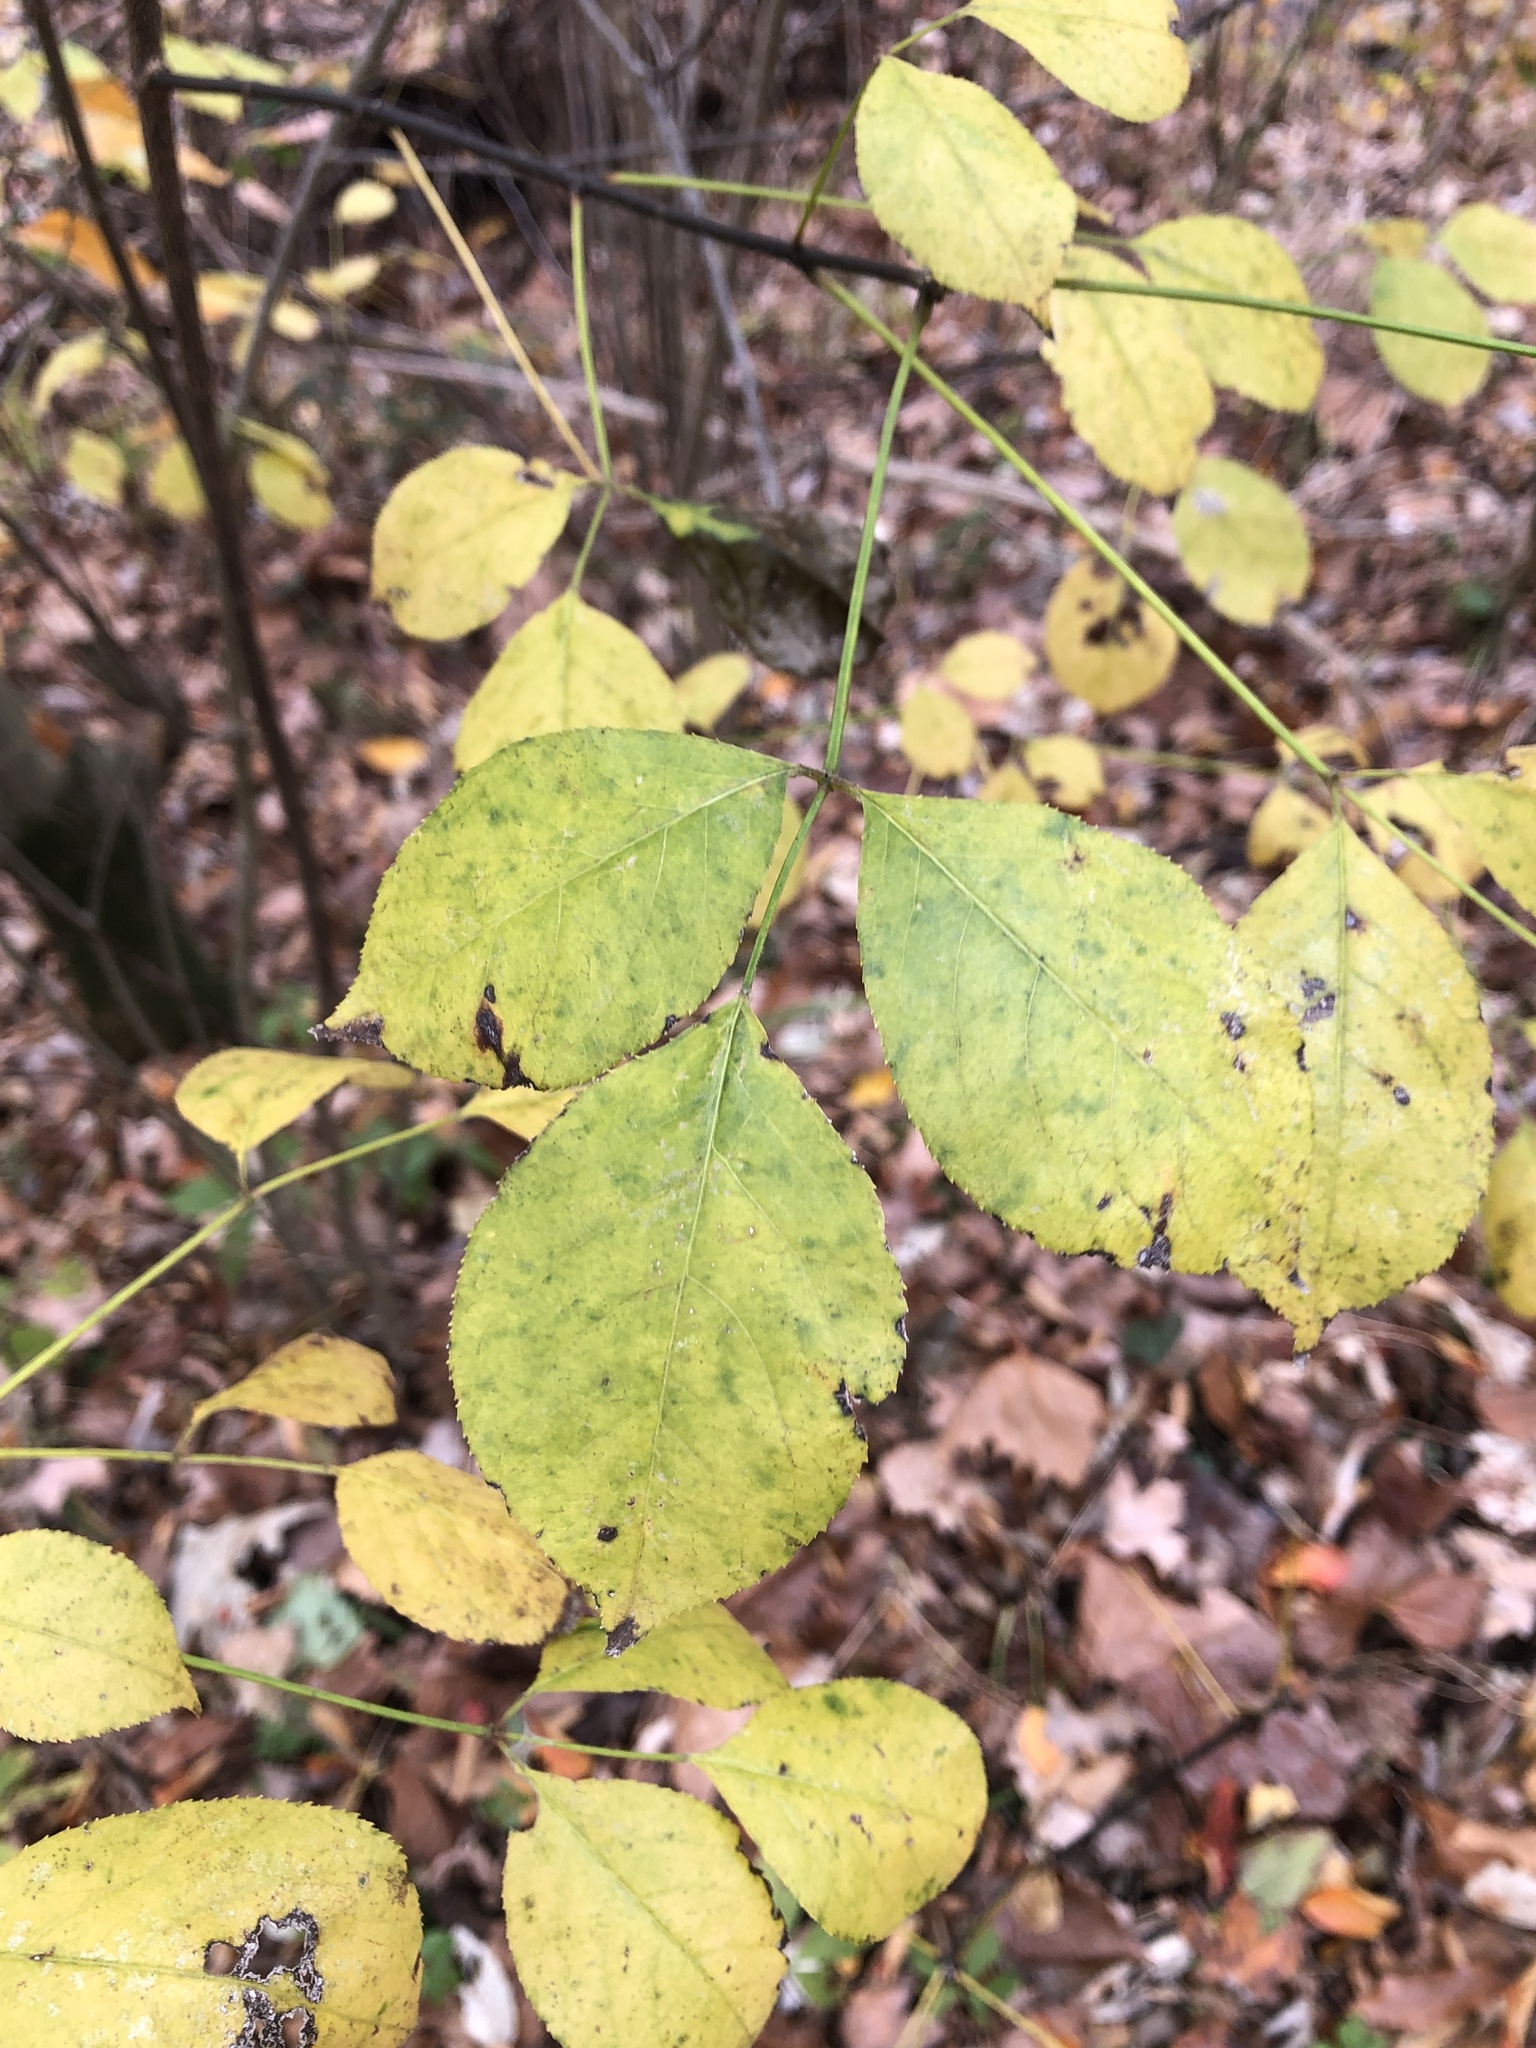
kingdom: Plantae
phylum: Tracheophyta
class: Magnoliopsida
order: Crossosomatales
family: Staphyleaceae
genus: Staphylea
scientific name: Staphylea trifolia
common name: American bladdernut
